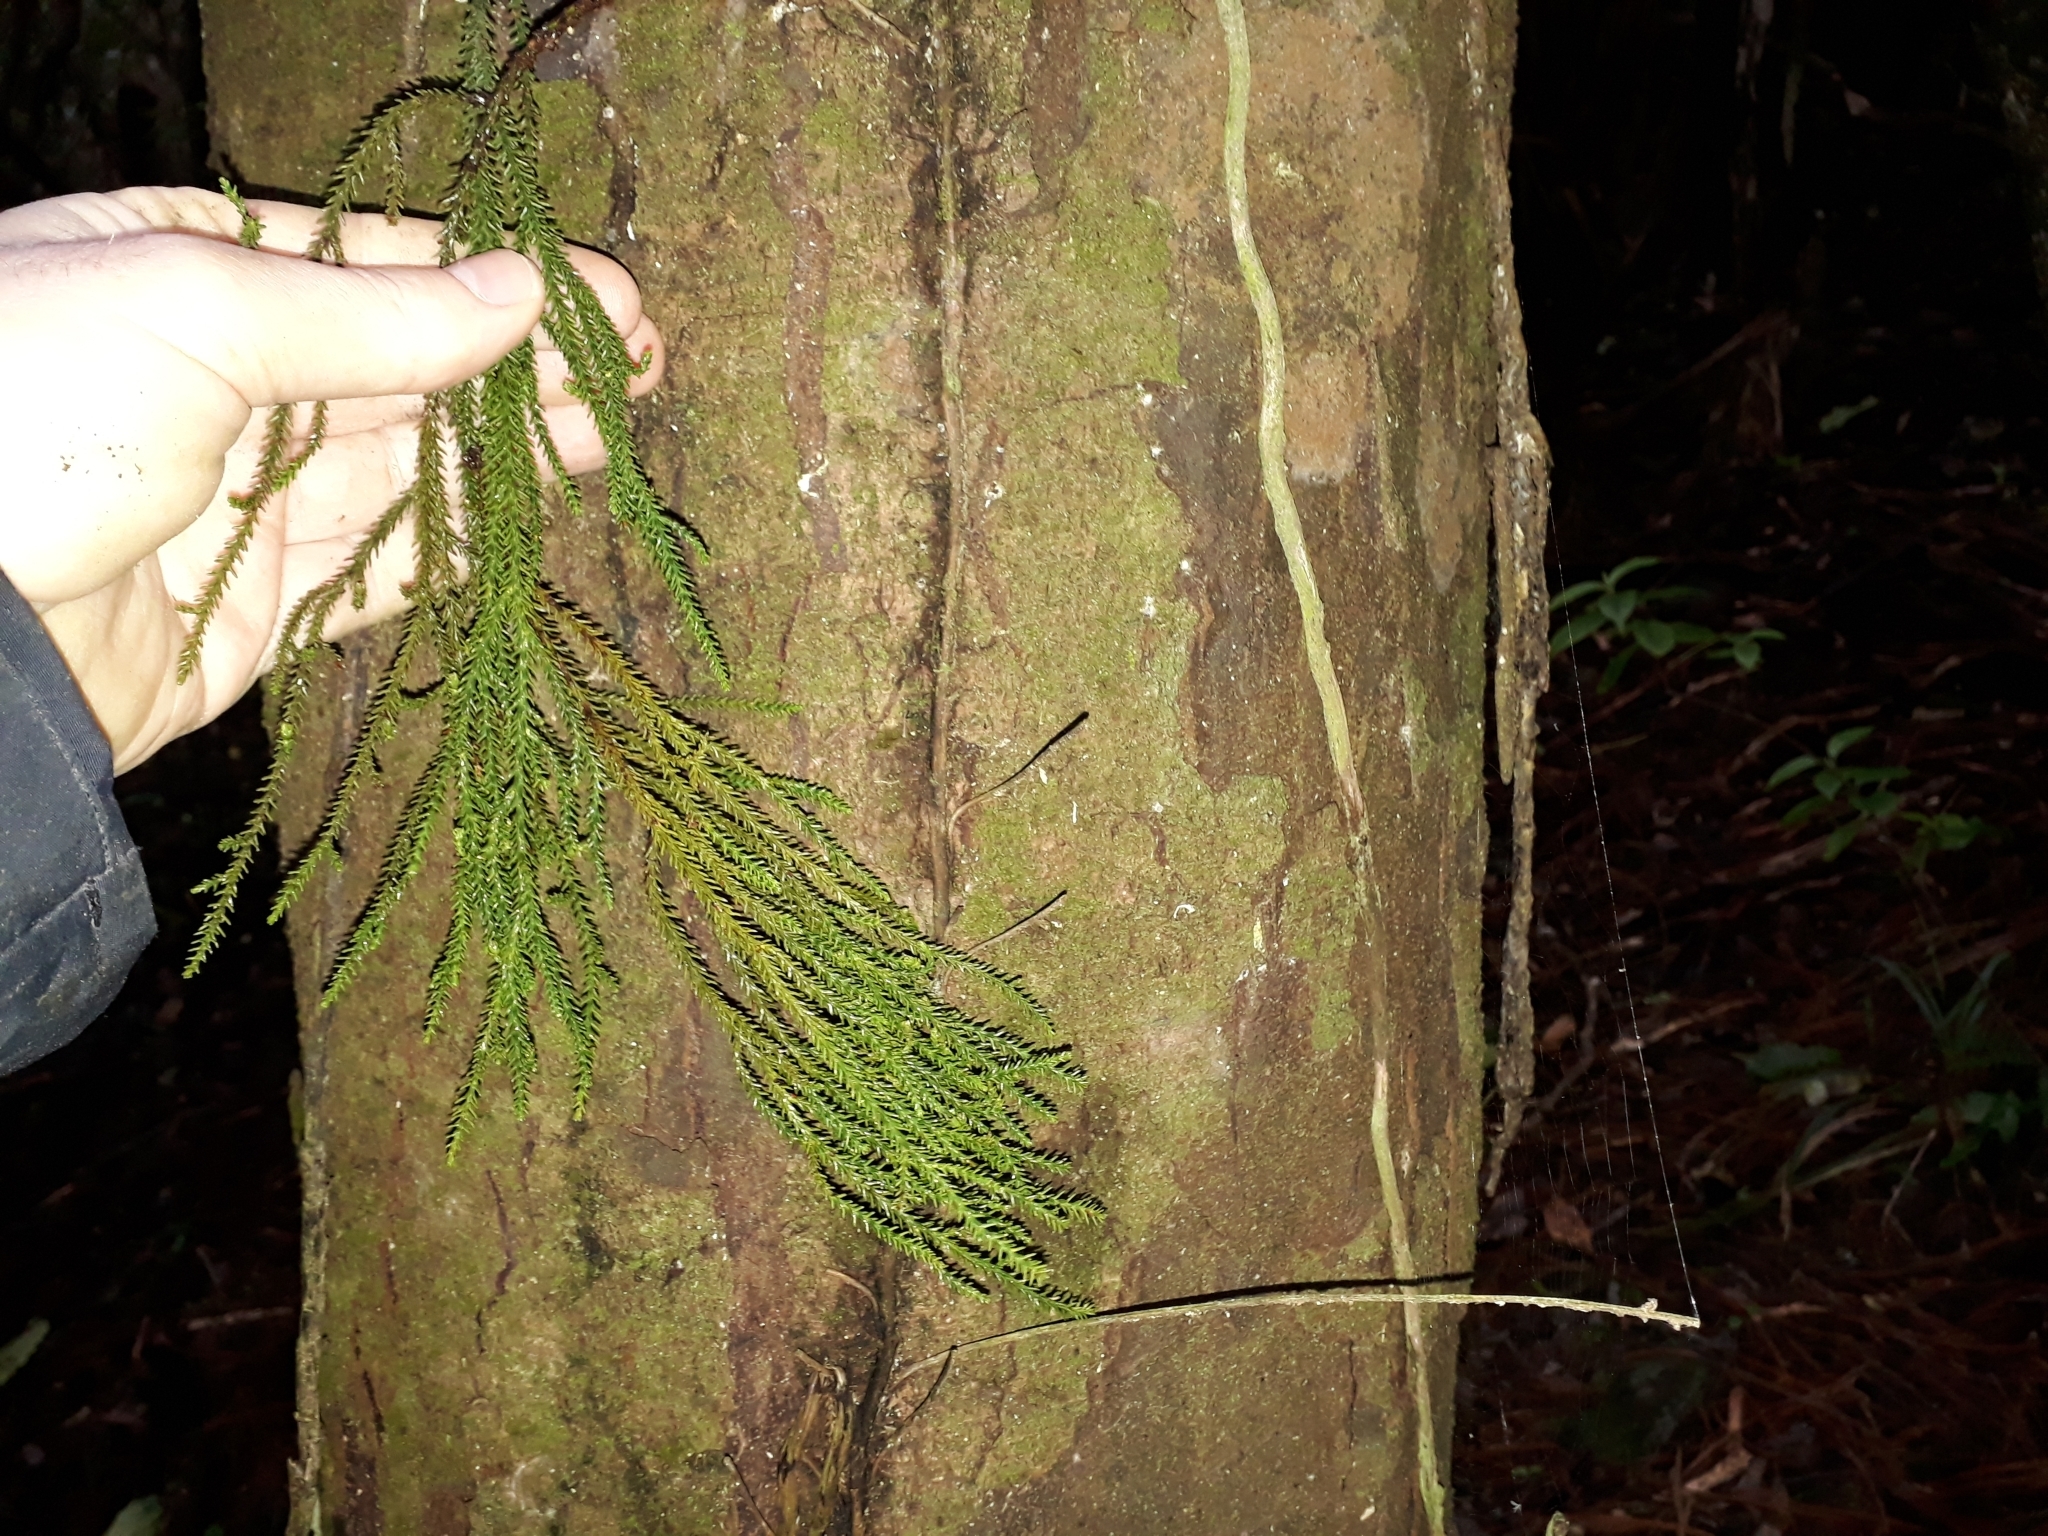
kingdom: Plantae
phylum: Tracheophyta
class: Pinopsida
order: Pinales
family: Podocarpaceae
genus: Dacrydium
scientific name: Dacrydium cupressinum
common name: Red pine
